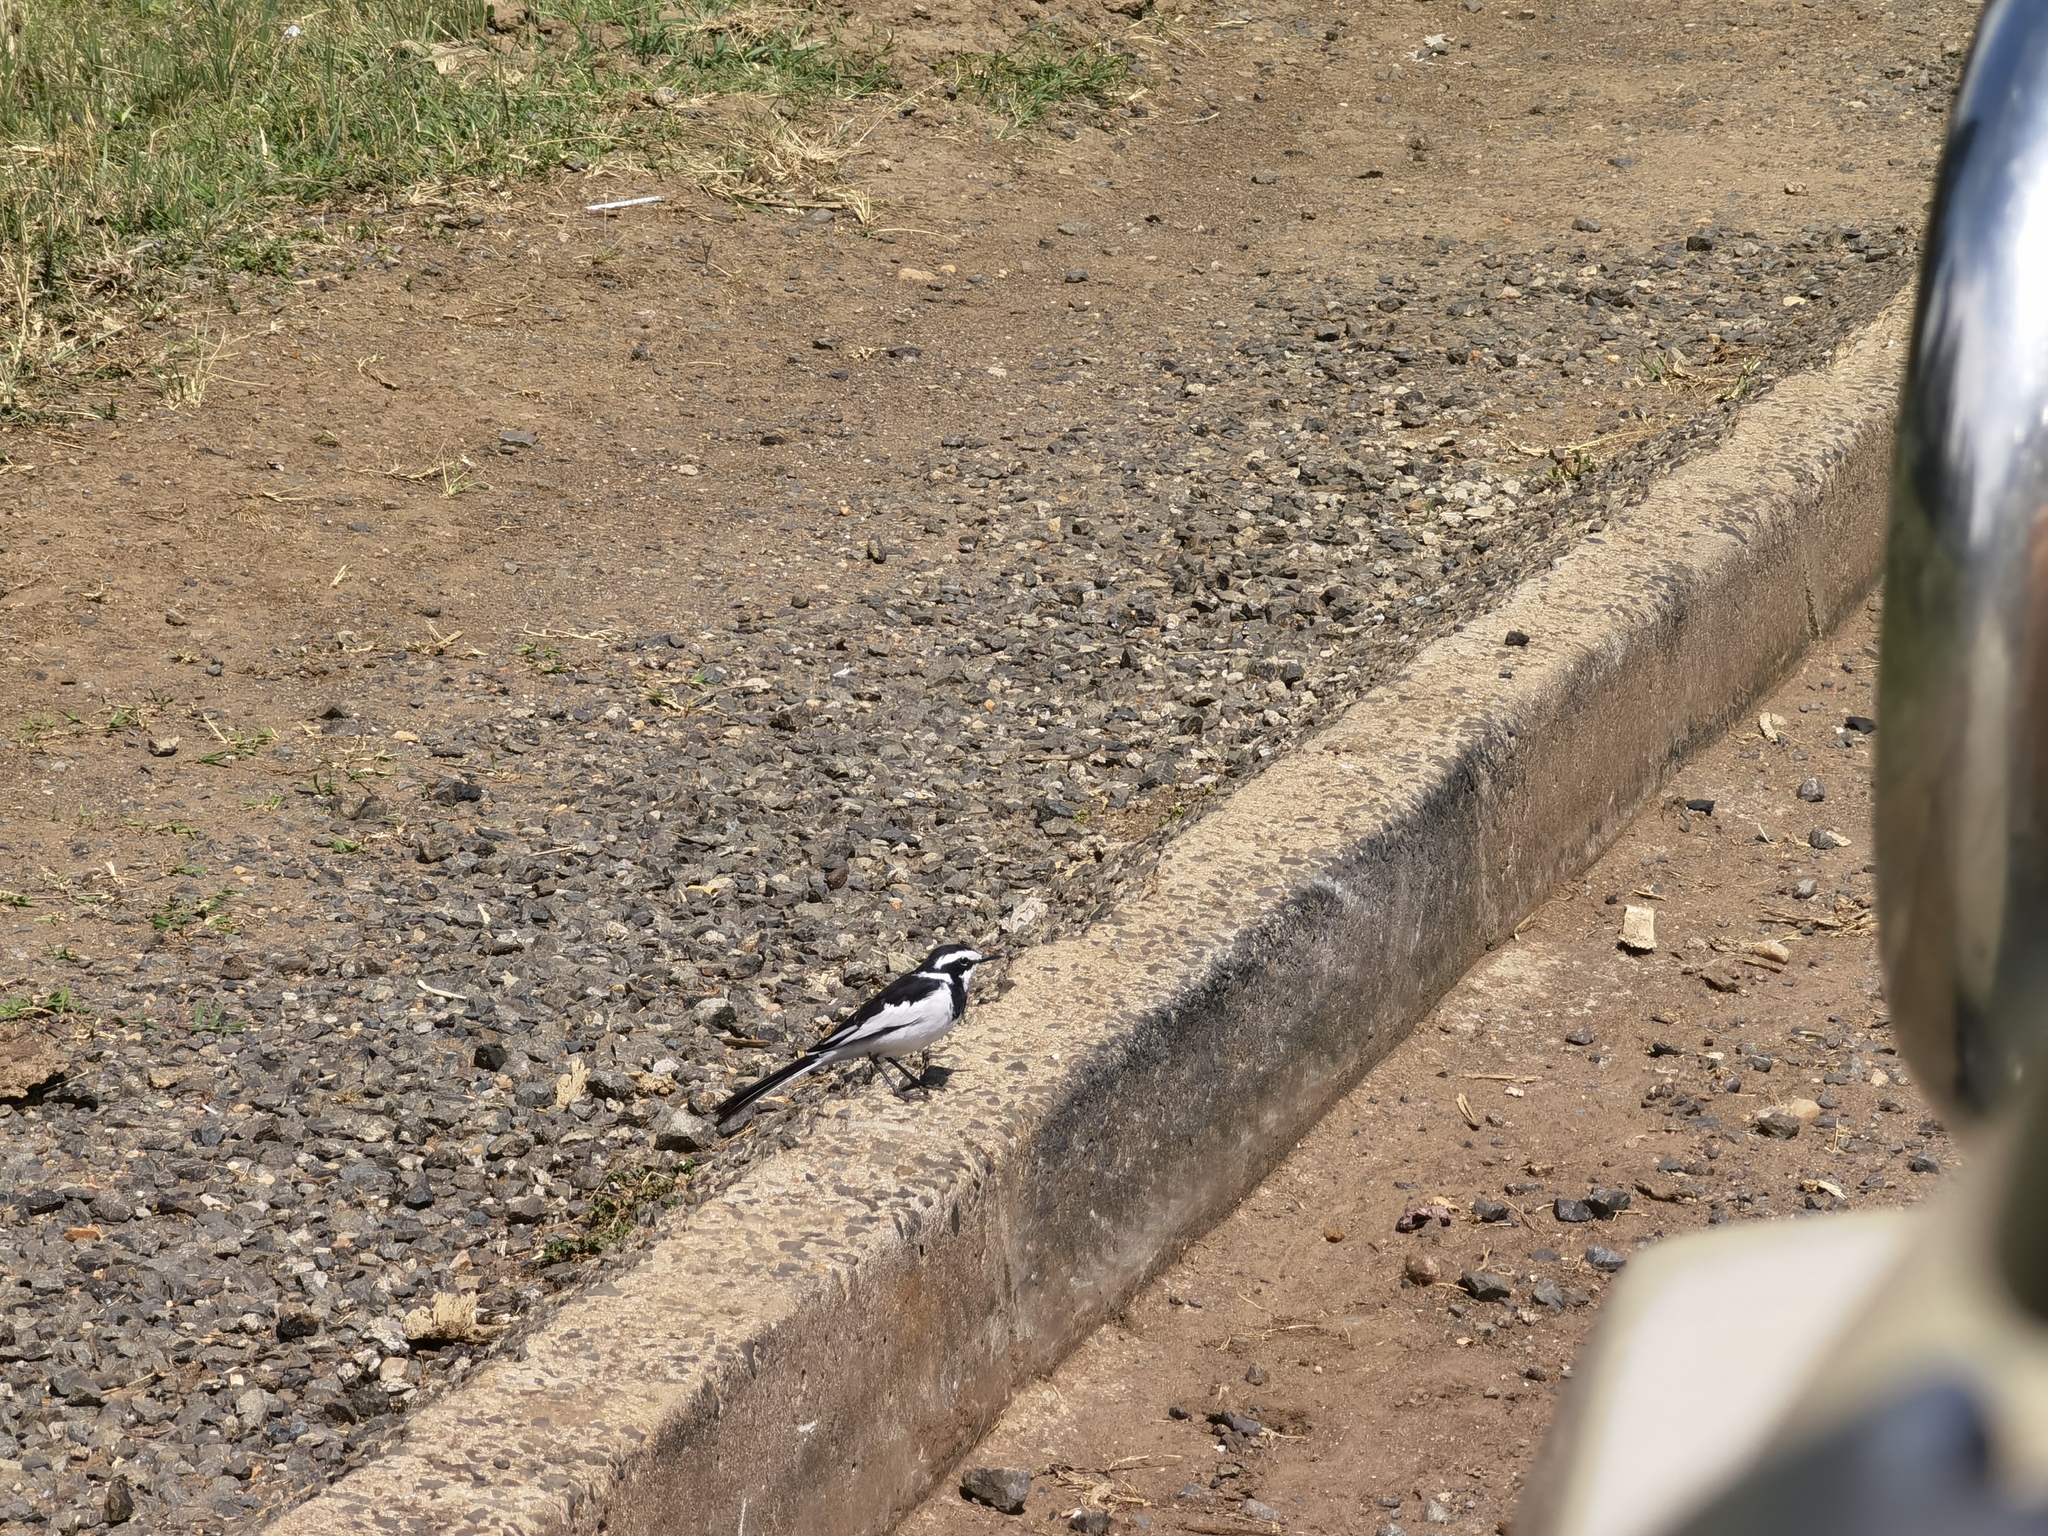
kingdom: Animalia
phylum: Chordata
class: Aves
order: Passeriformes
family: Motacillidae
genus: Motacilla
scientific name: Motacilla aguimp
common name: African pied wagtail
